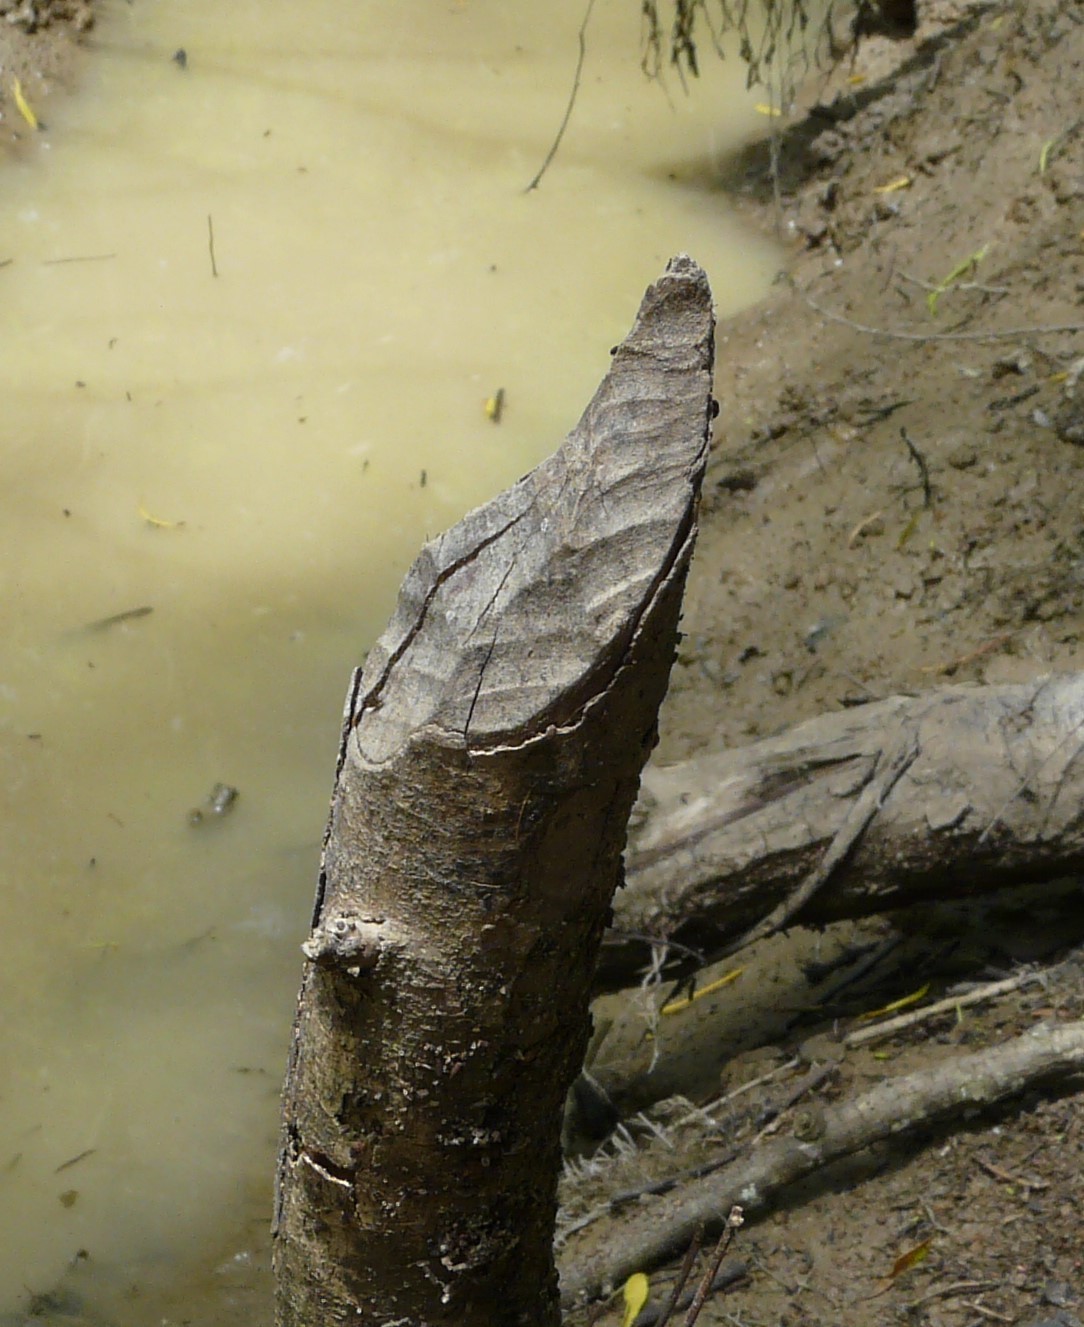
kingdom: Animalia
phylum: Chordata
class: Mammalia
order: Rodentia
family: Castoridae
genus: Castor
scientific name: Castor canadensis
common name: American beaver
